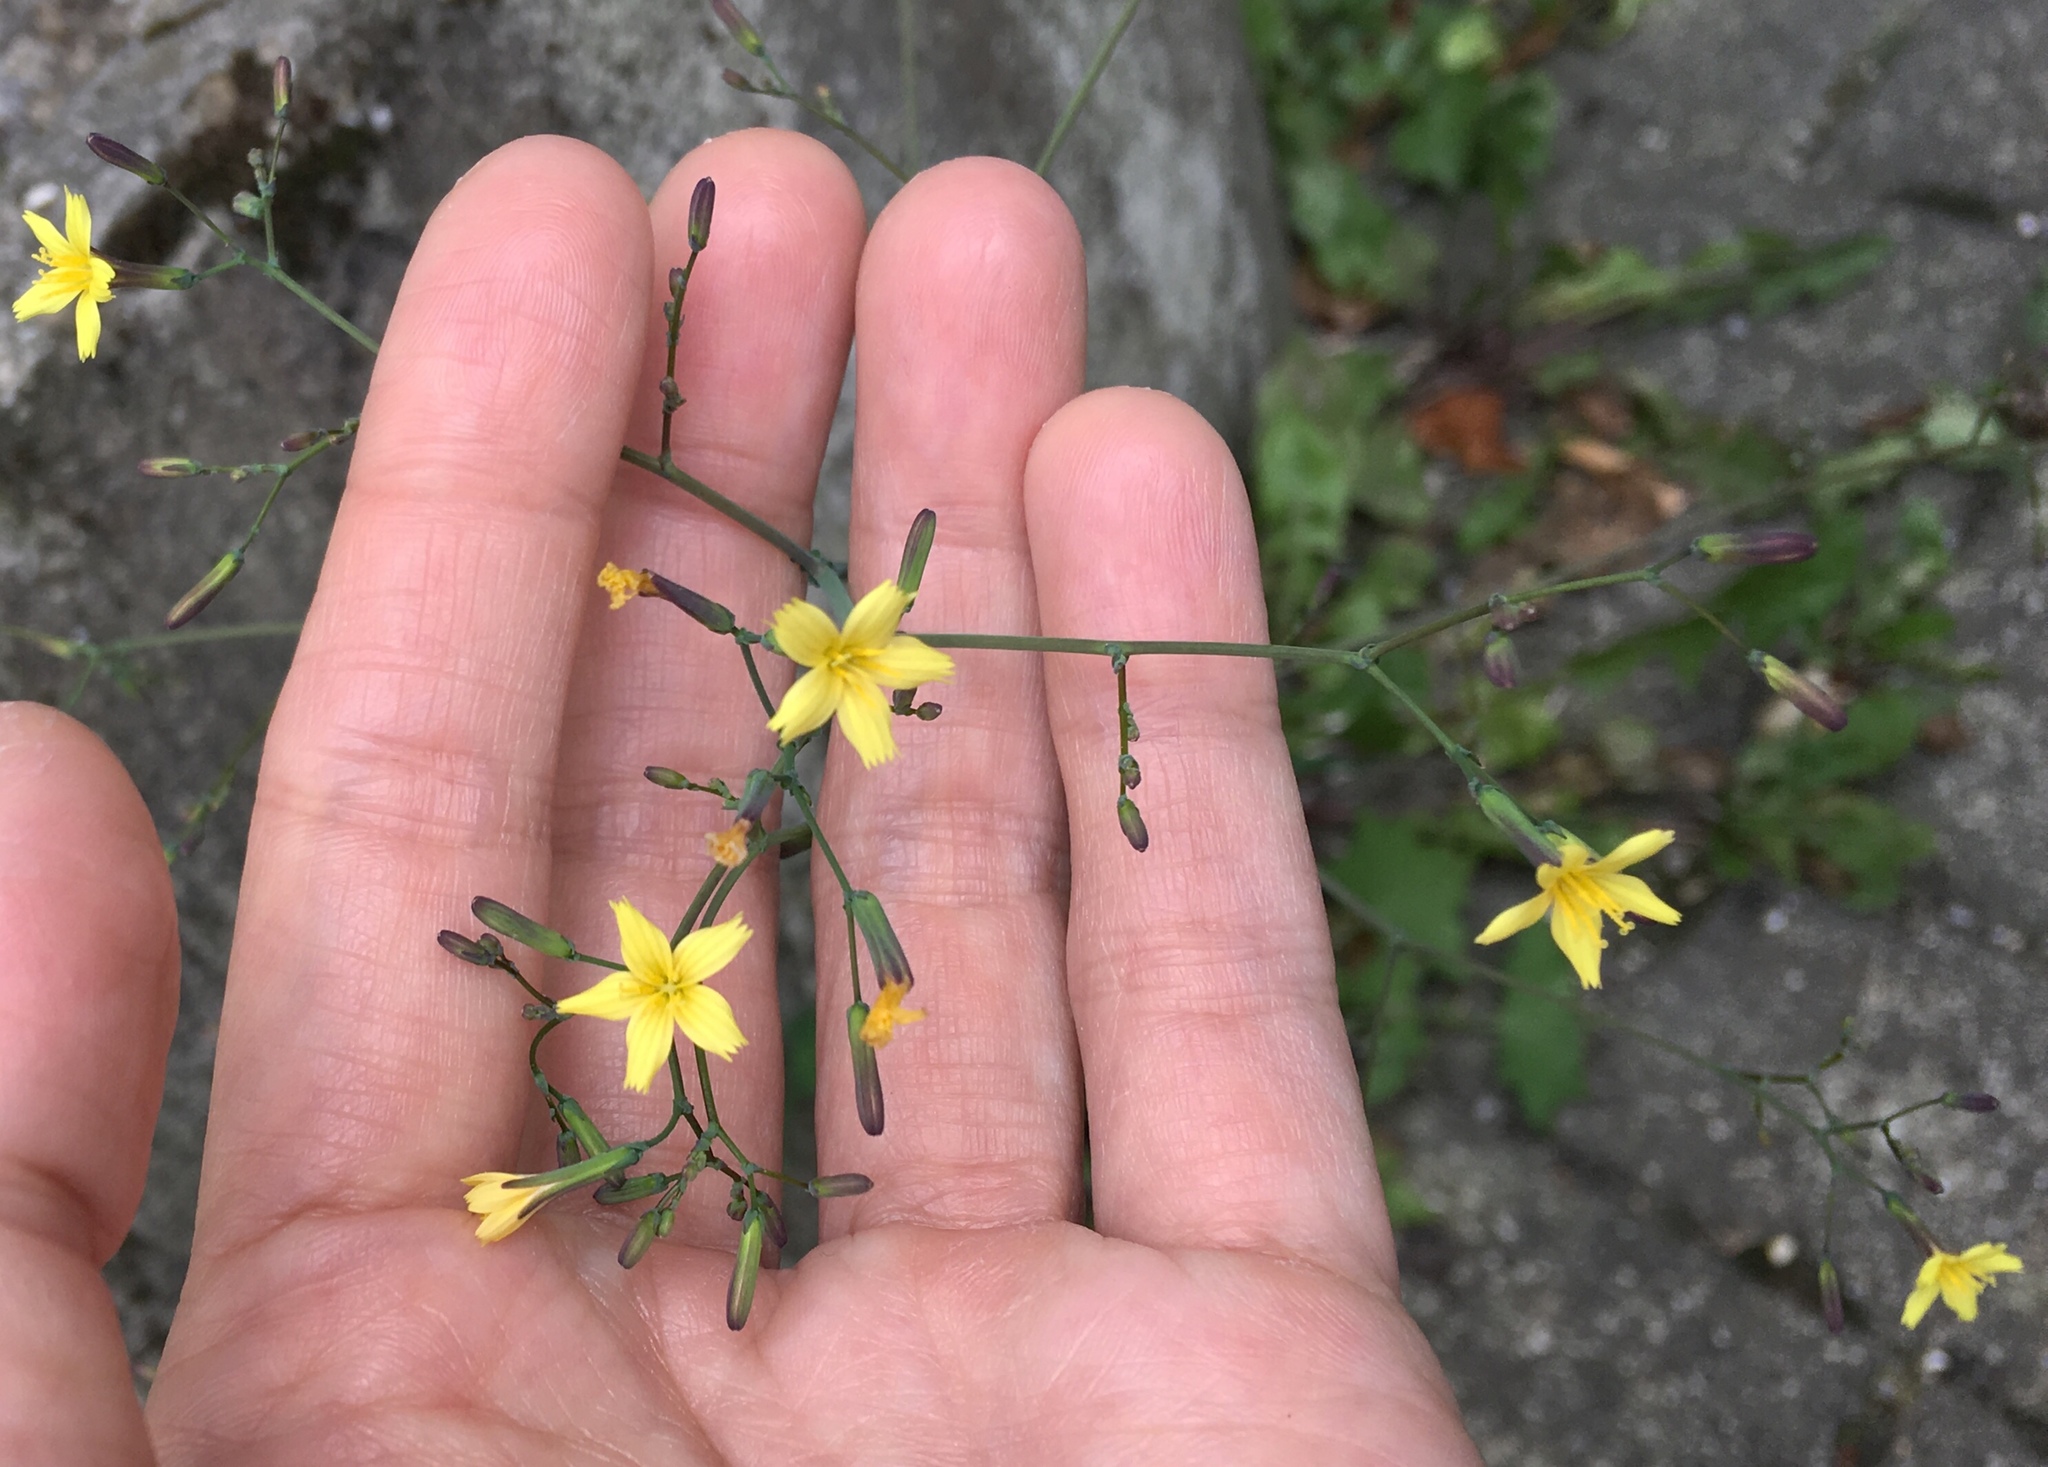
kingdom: Plantae
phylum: Tracheophyta
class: Magnoliopsida
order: Asterales
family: Asteraceae
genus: Mycelis
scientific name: Mycelis muralis
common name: Wall lettuce
